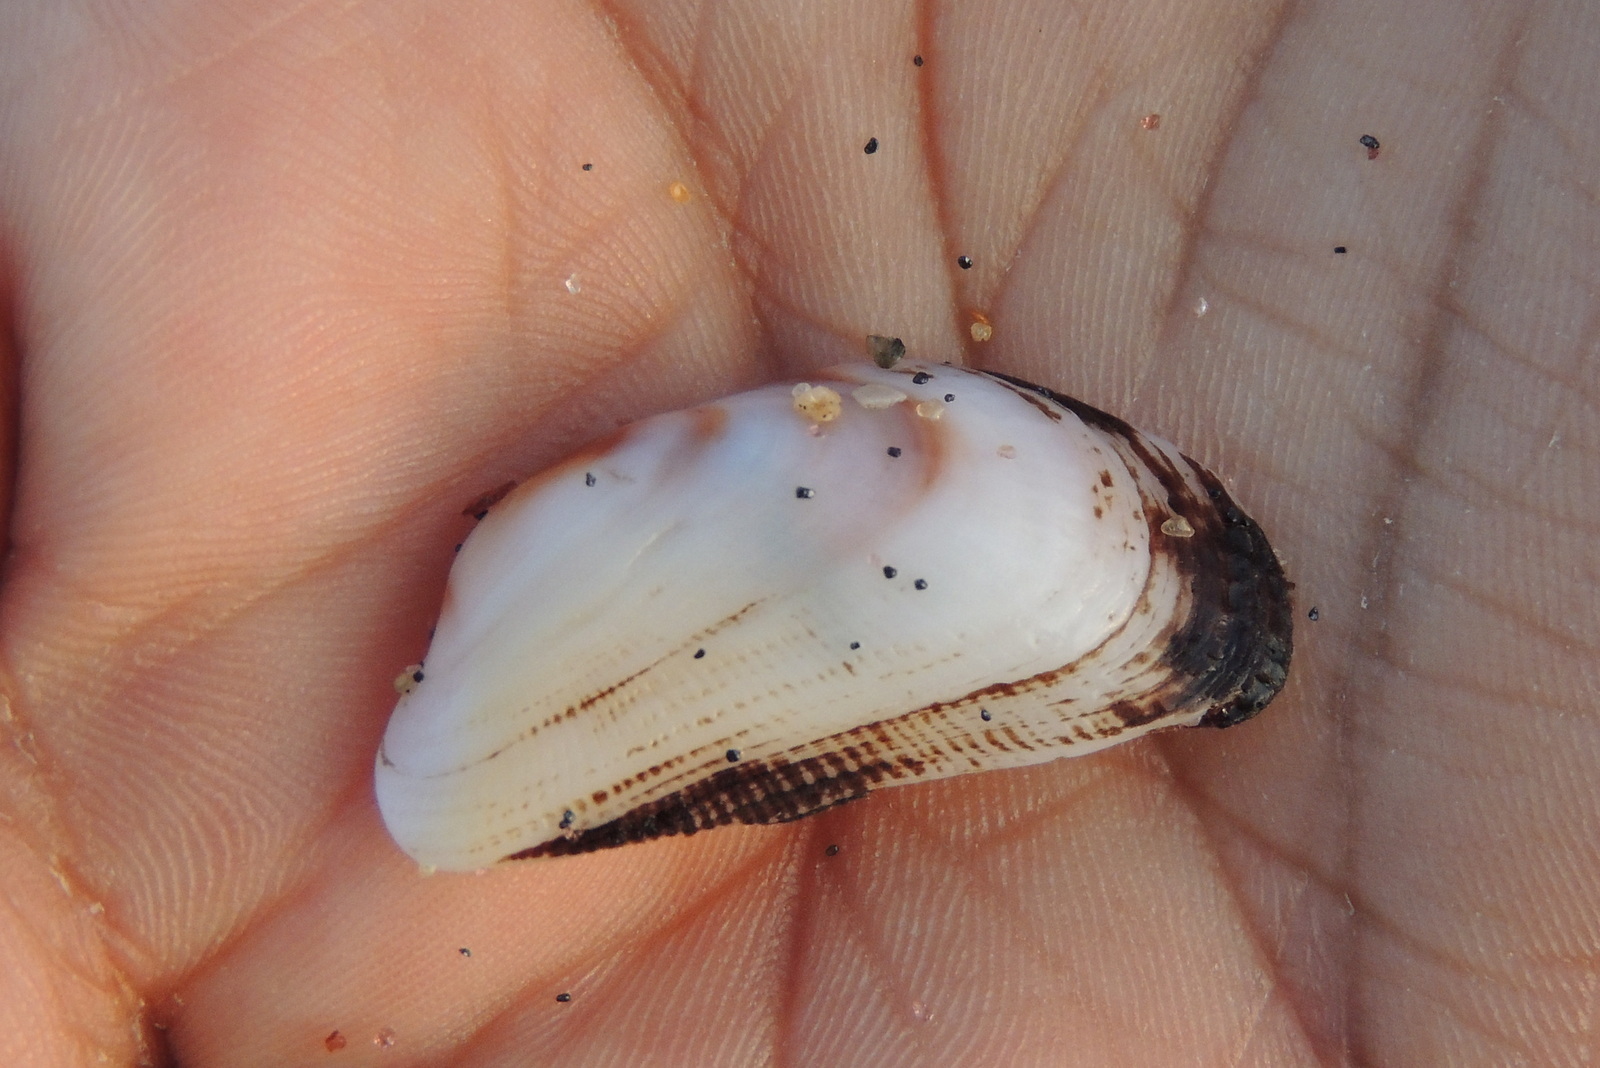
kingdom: Animalia
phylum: Mollusca
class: Bivalvia
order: Arcida
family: Arcidae
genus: Barbatia
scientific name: Barbatia obliquata
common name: Oblique ark shell
